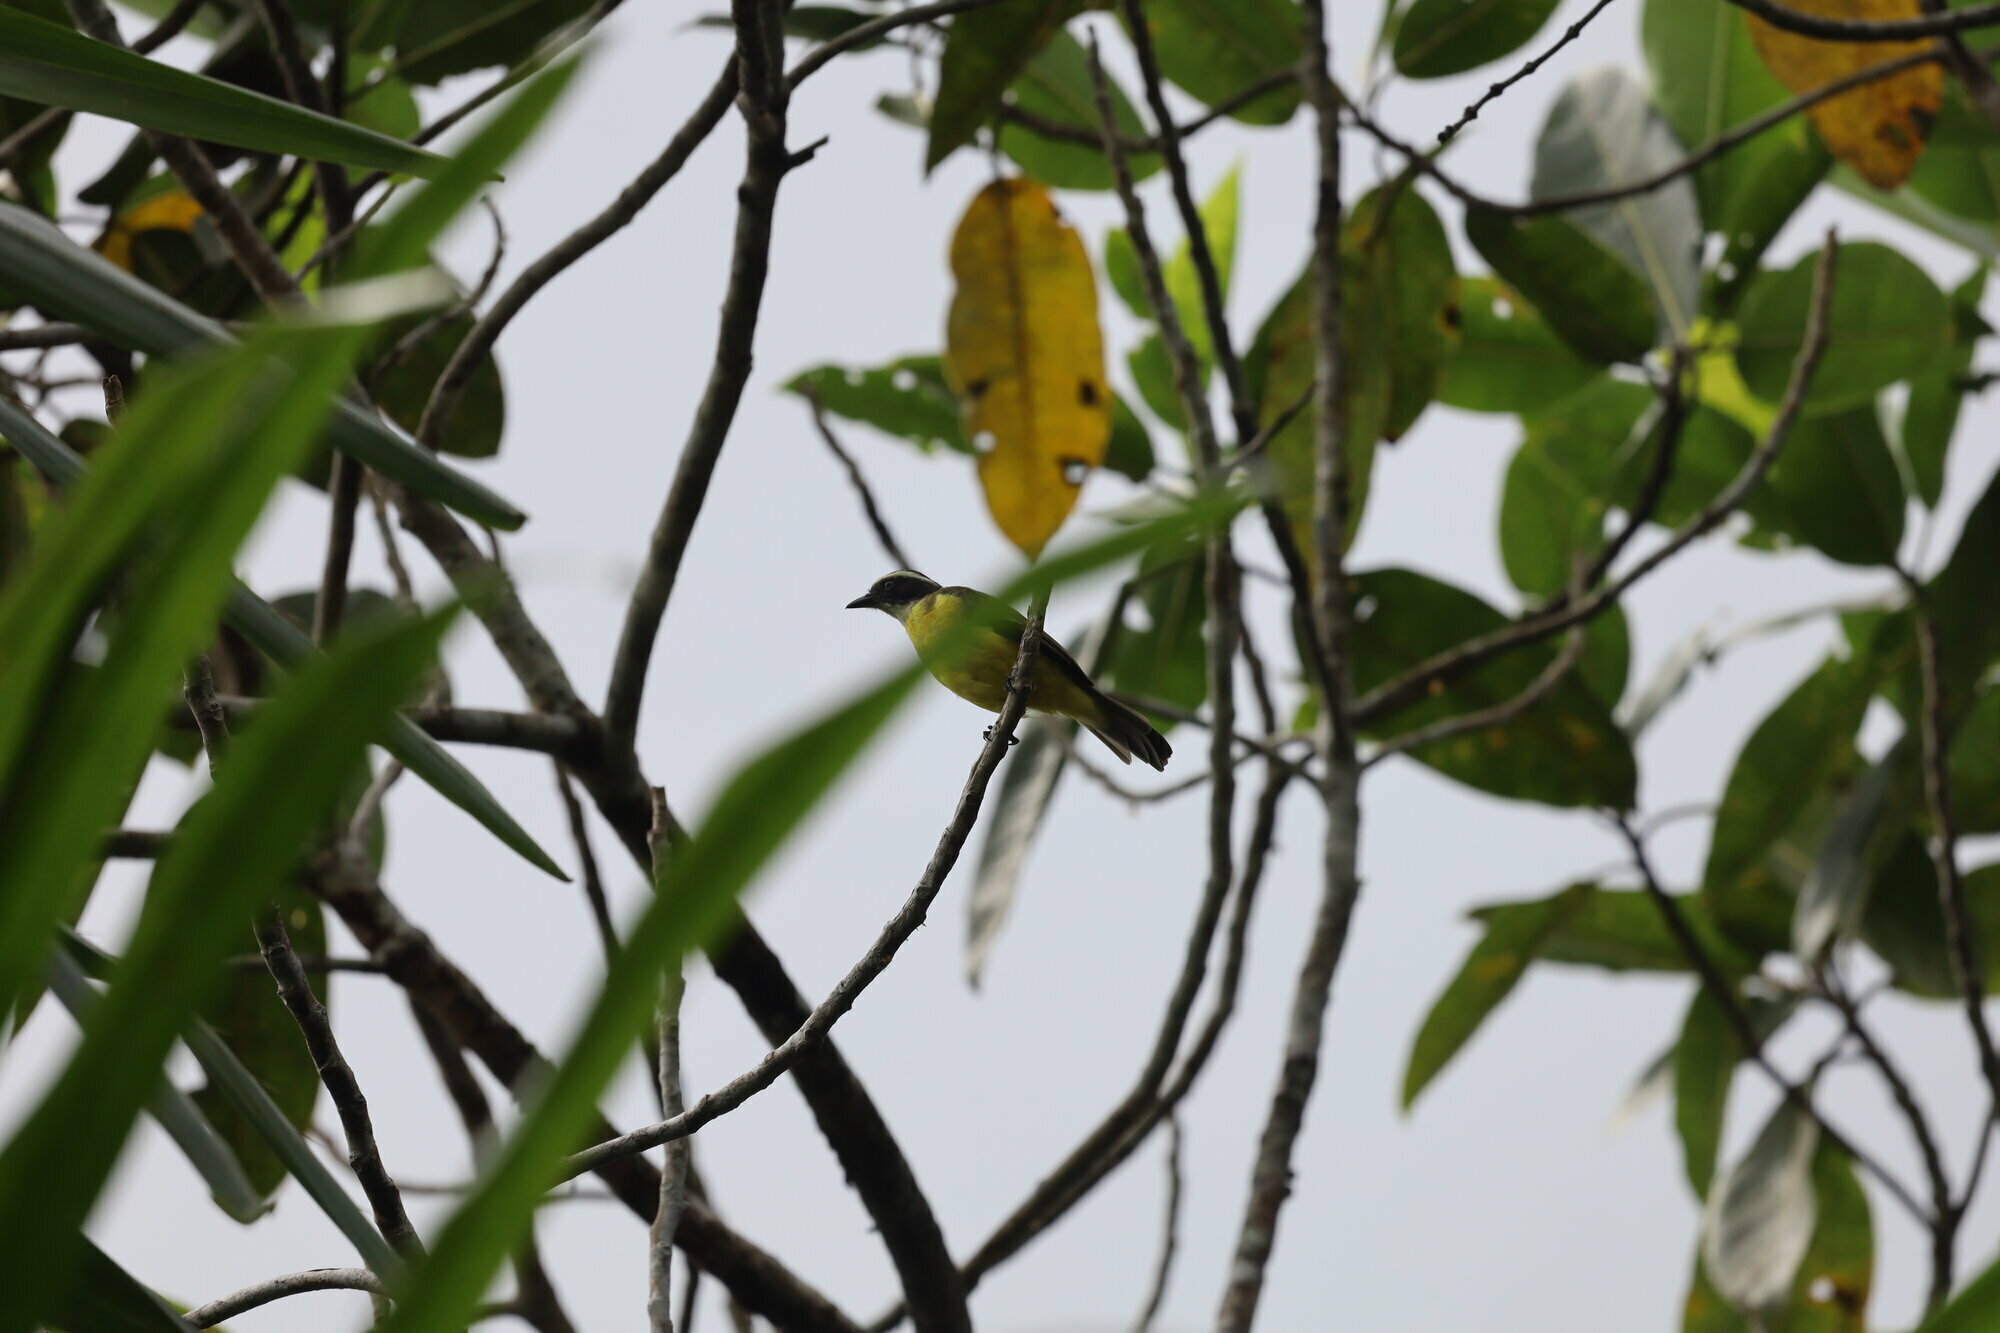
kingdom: Animalia
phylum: Chordata
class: Aves
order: Passeriformes
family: Tyrannidae
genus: Myiozetetes
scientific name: Myiozetetes similis
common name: Social flycatcher
